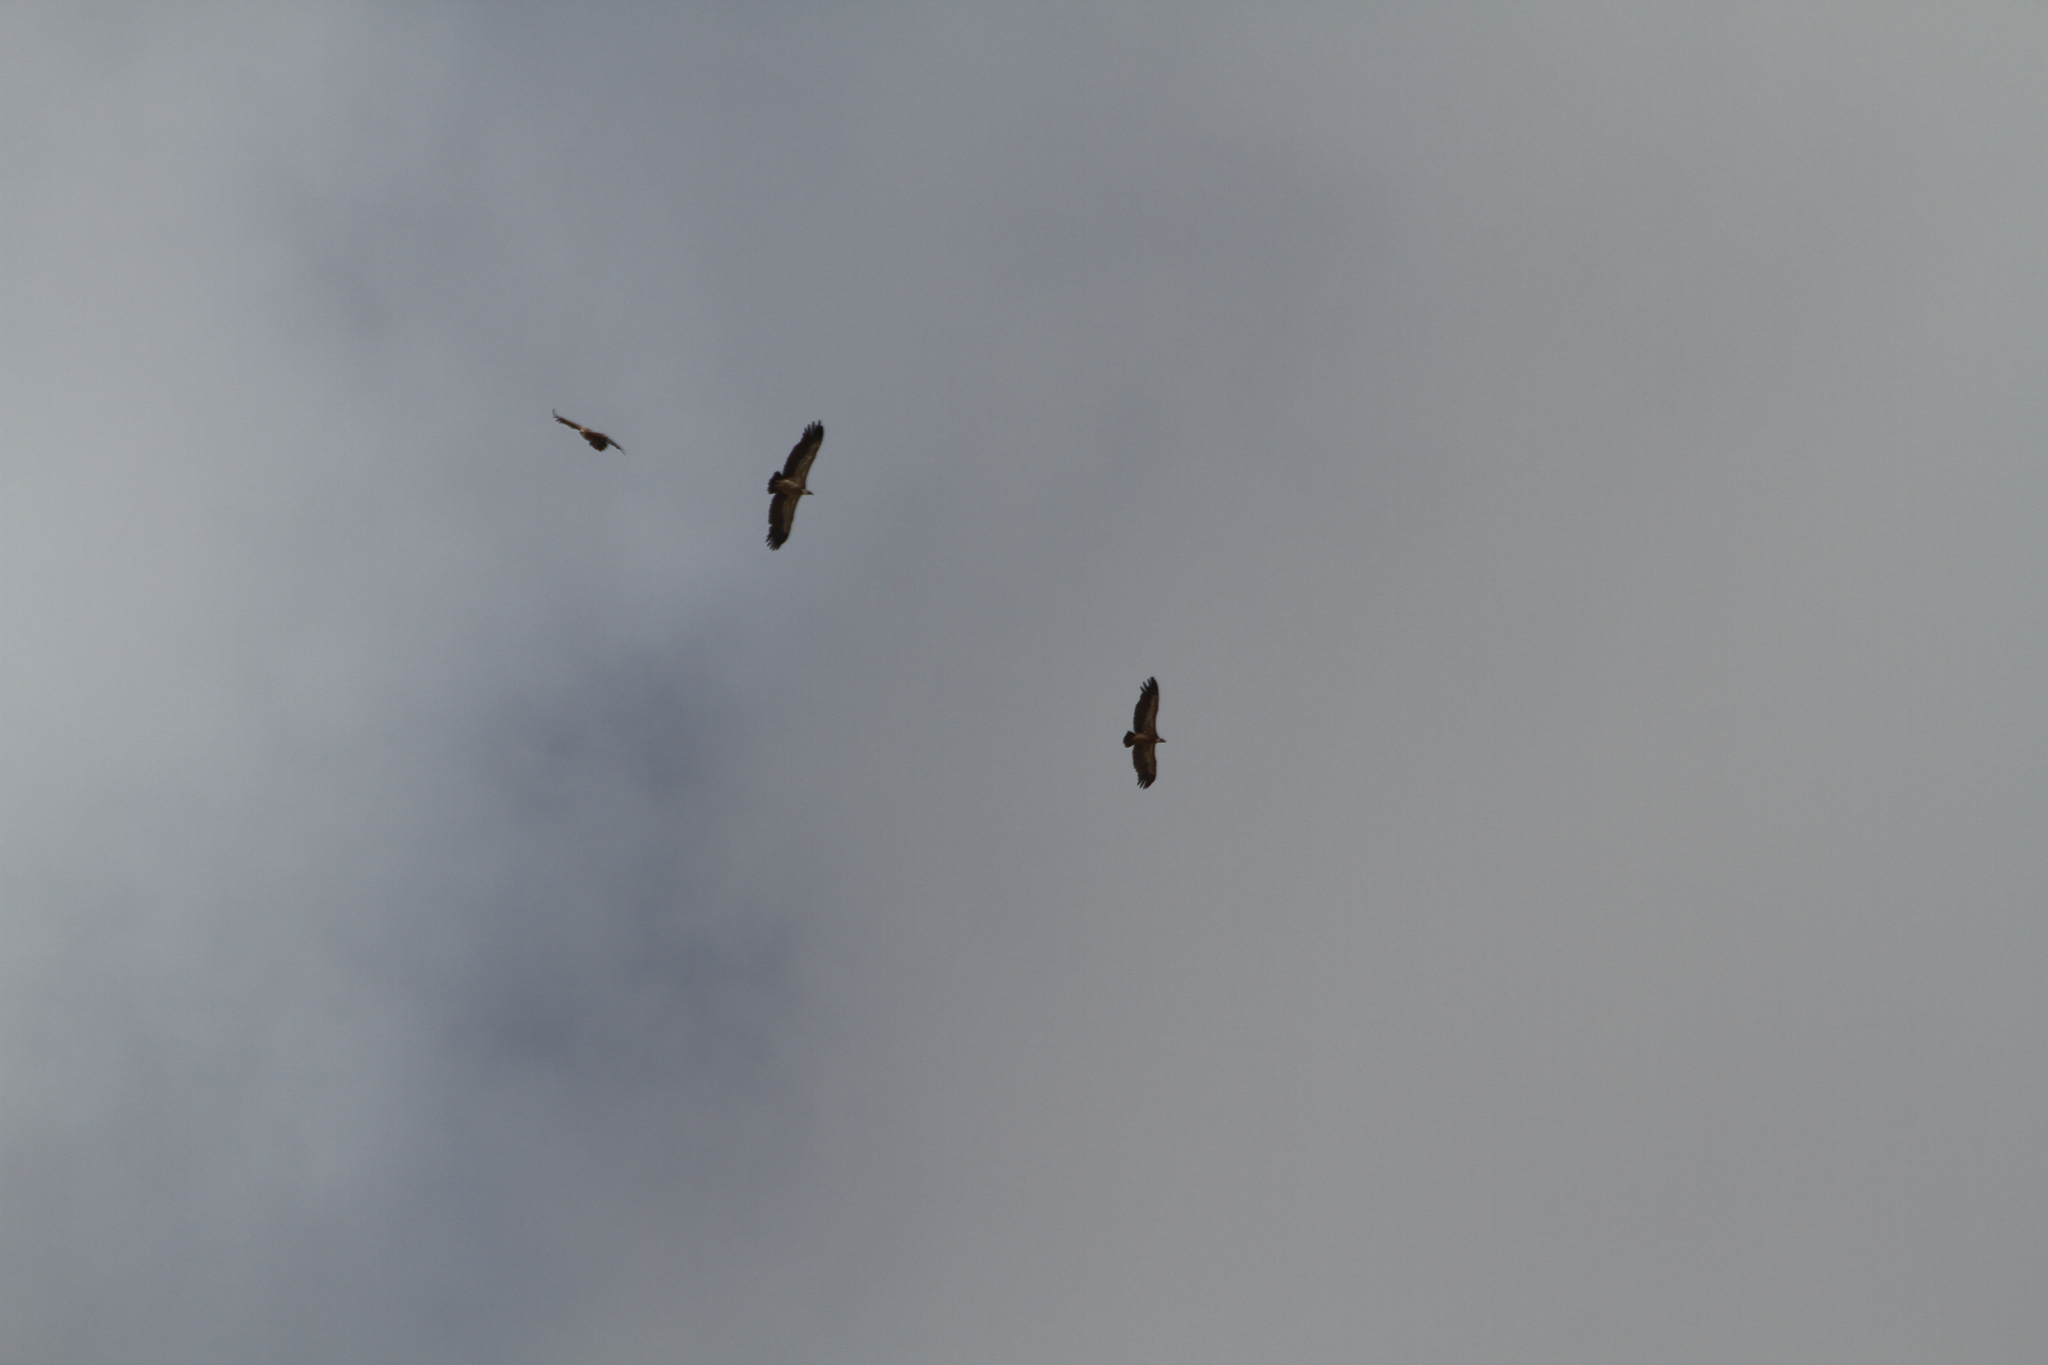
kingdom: Animalia
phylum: Chordata
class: Aves
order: Accipitriformes
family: Accipitridae
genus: Gyps
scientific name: Gyps fulvus
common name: Griffon vulture
